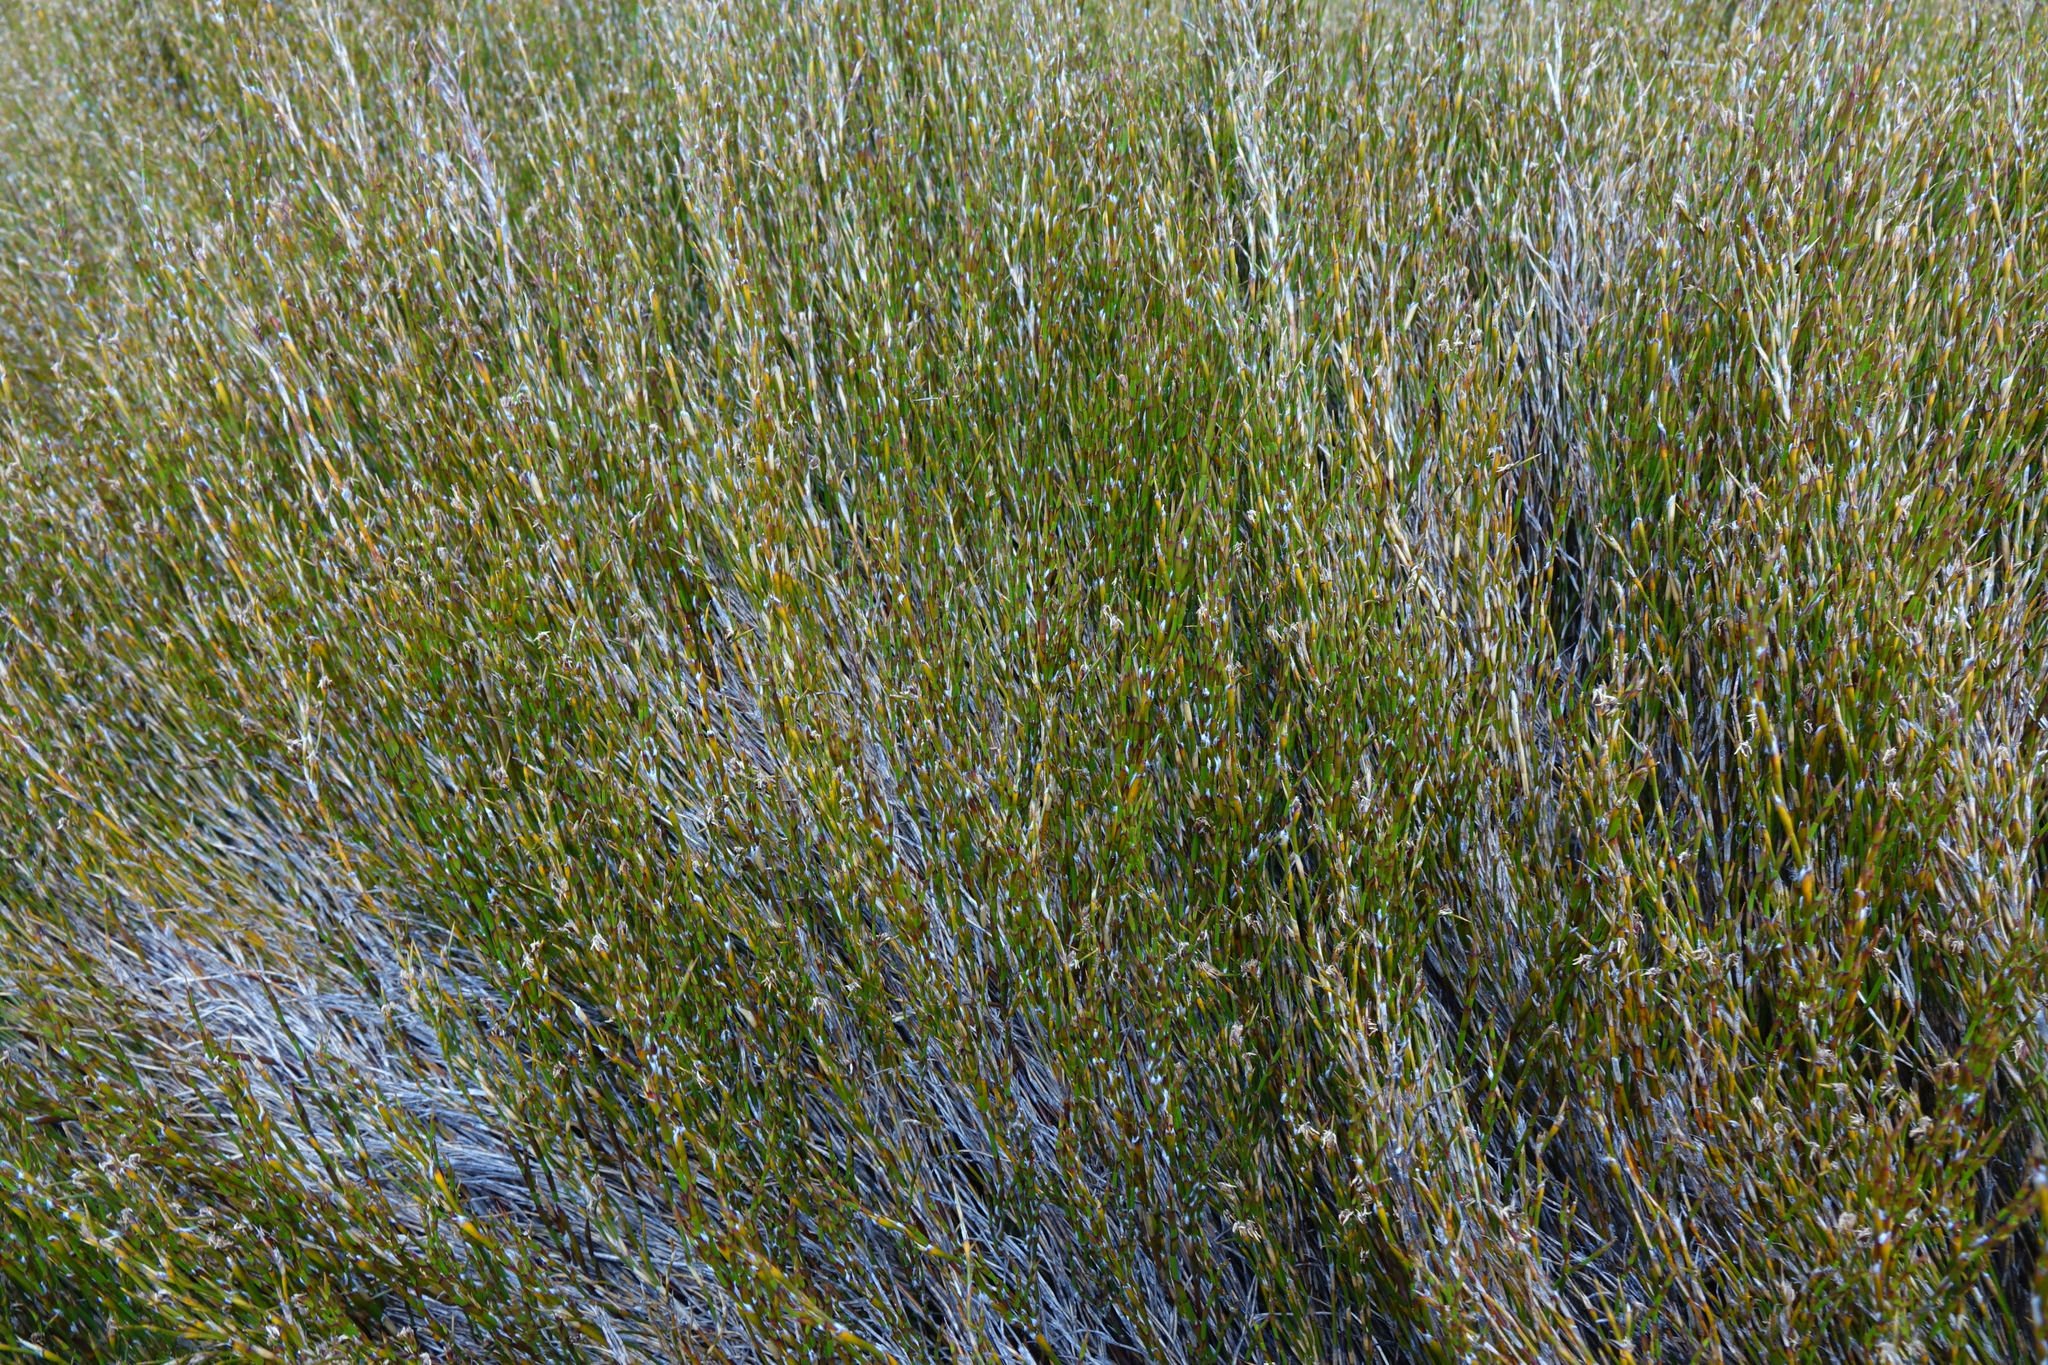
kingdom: Plantae
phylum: Tracheophyta
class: Liliopsida
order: Poales
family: Restionaceae
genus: Empodisma
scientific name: Empodisma minus
